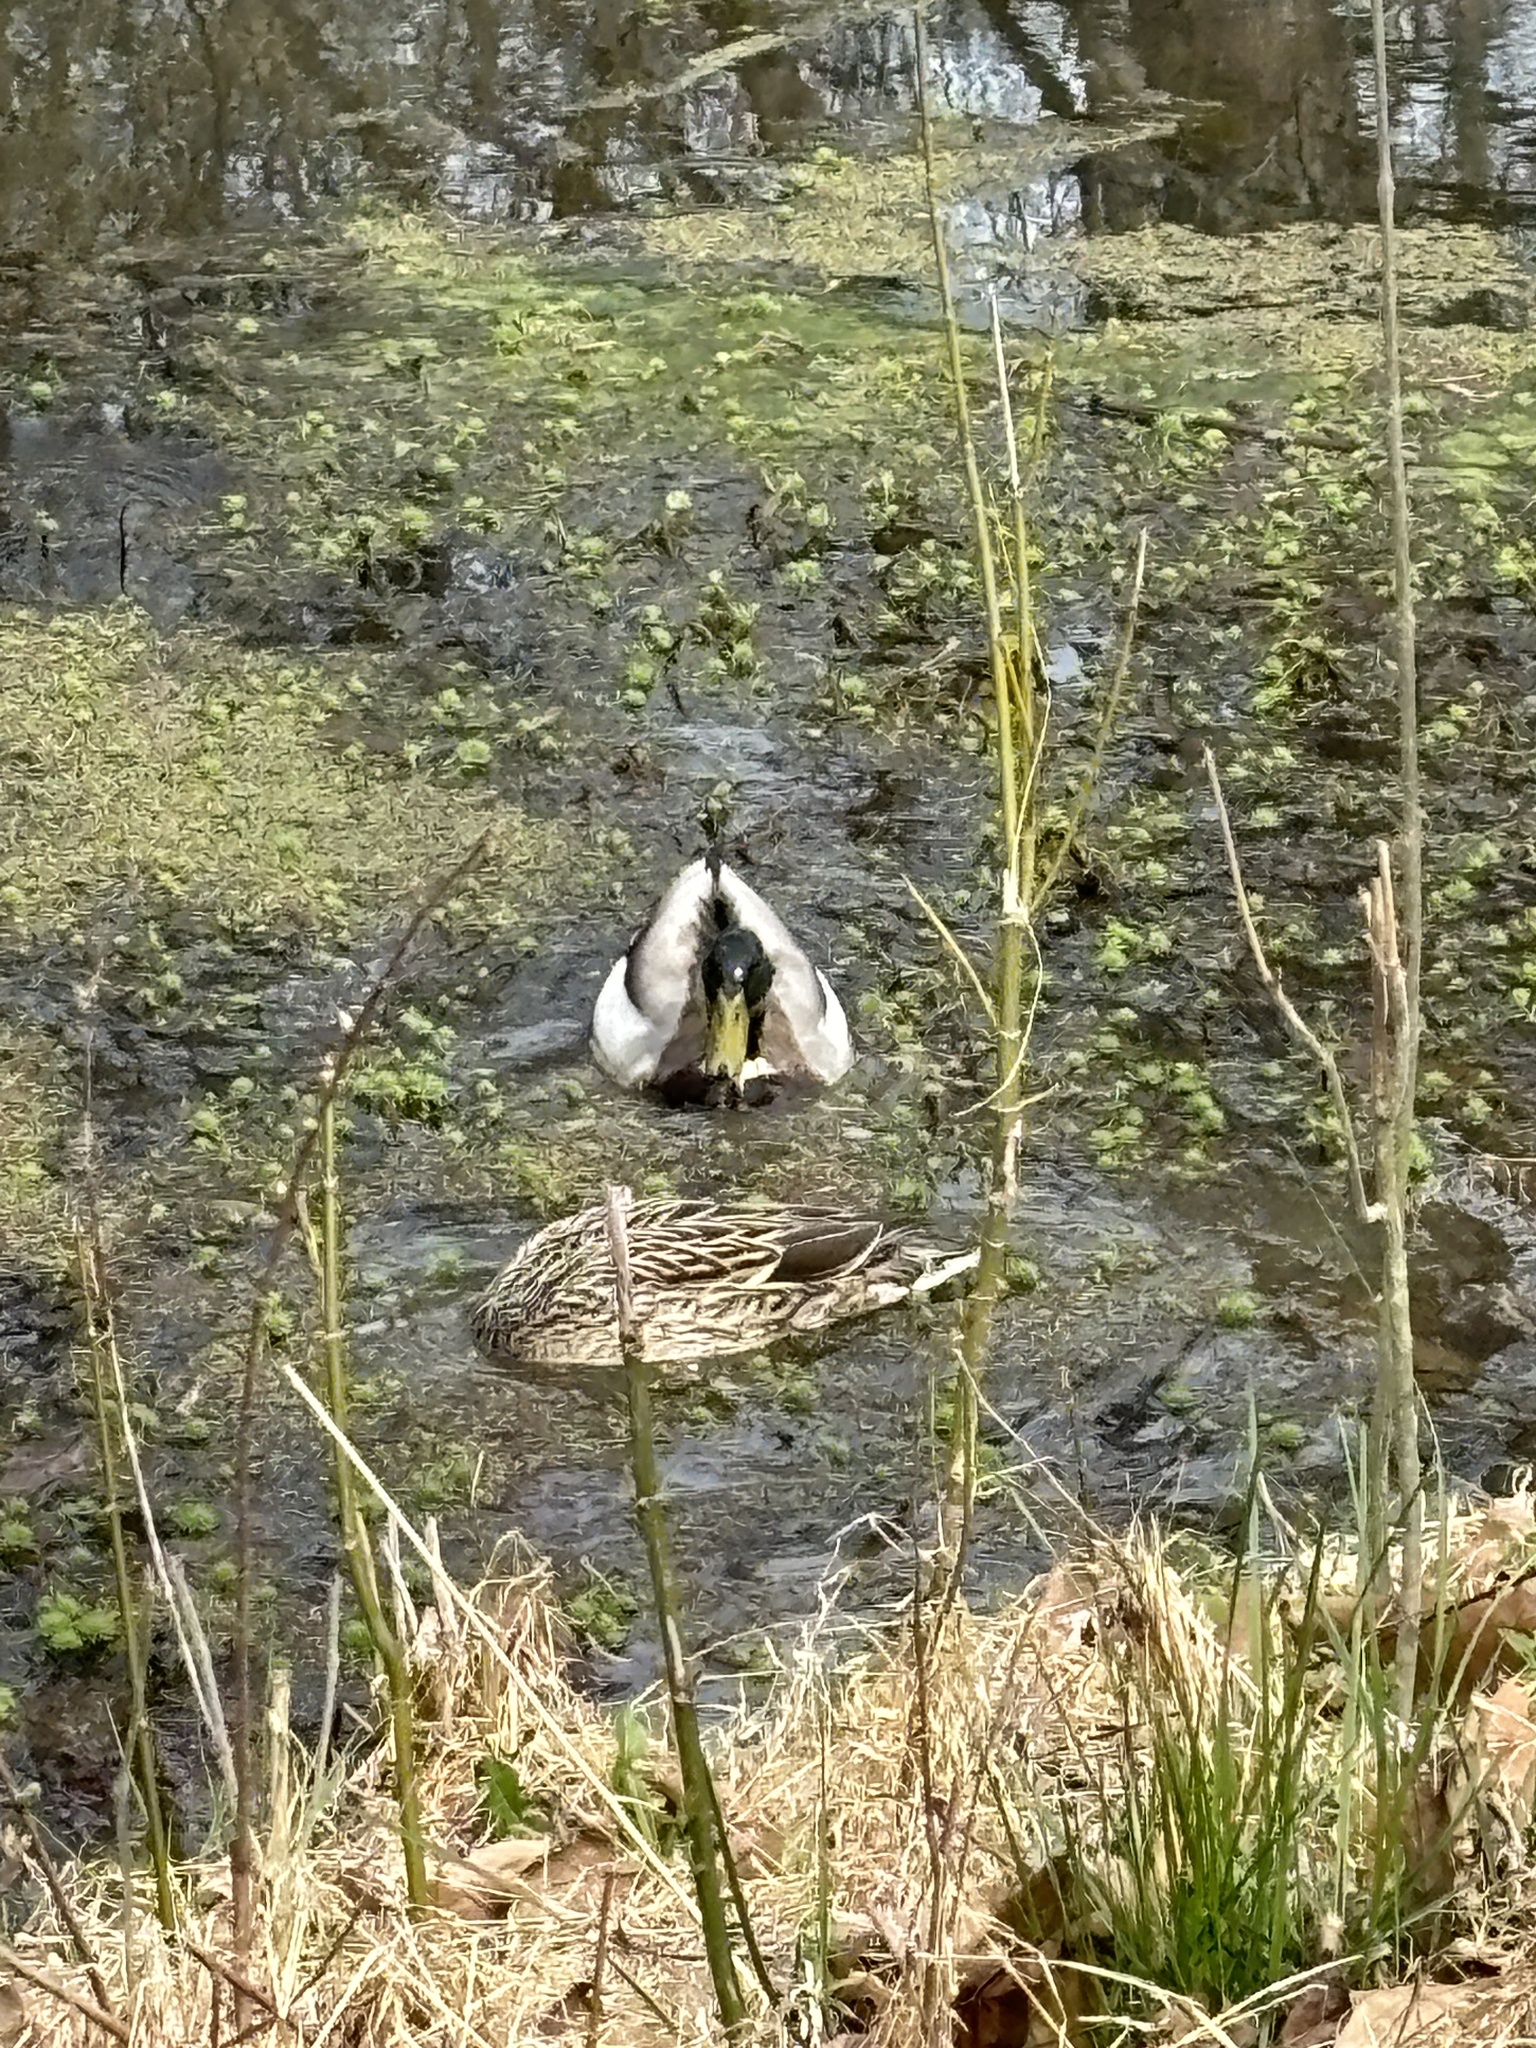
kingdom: Animalia
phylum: Chordata
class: Aves
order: Anseriformes
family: Anatidae
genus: Anas
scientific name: Anas platyrhynchos
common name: Mallard
